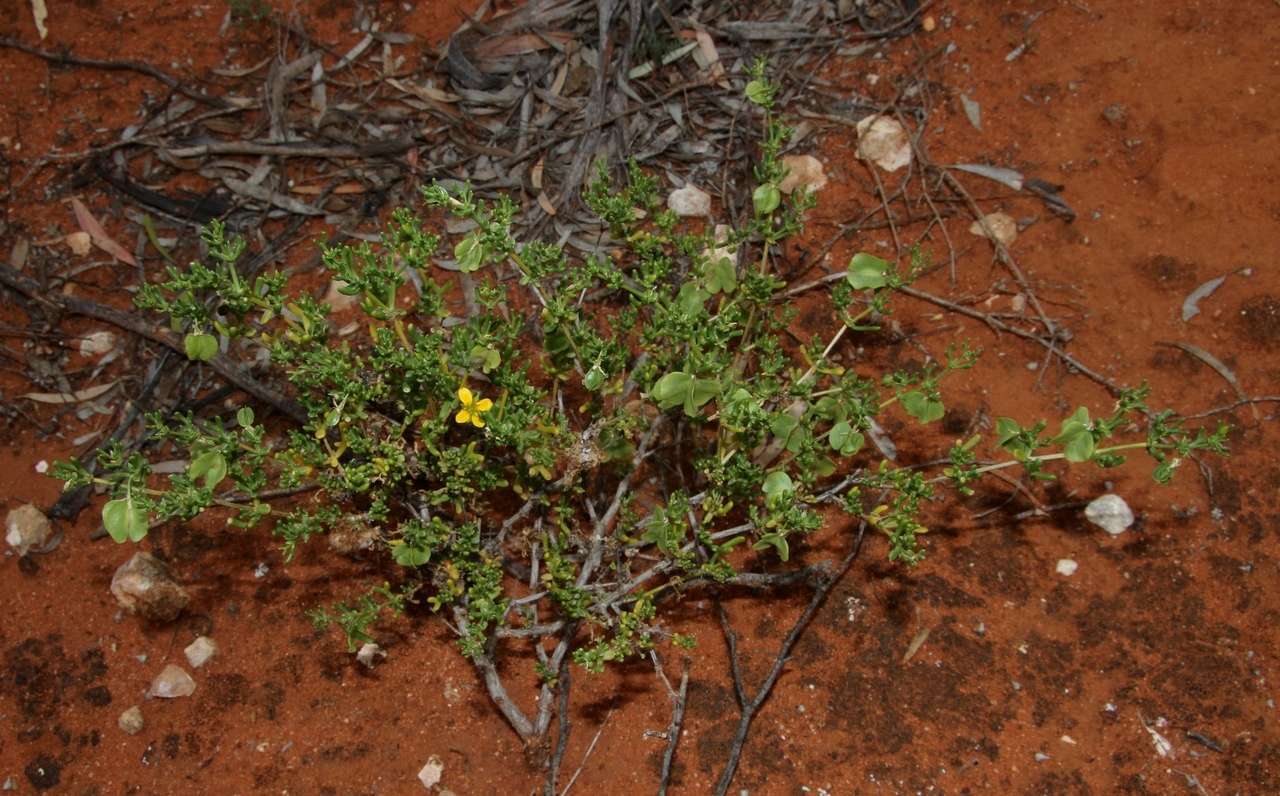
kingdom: Plantae
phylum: Tracheophyta
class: Magnoliopsida
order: Zygophyllales
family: Zygophyllaceae
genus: Roepera
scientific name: Roepera aurantiaca
